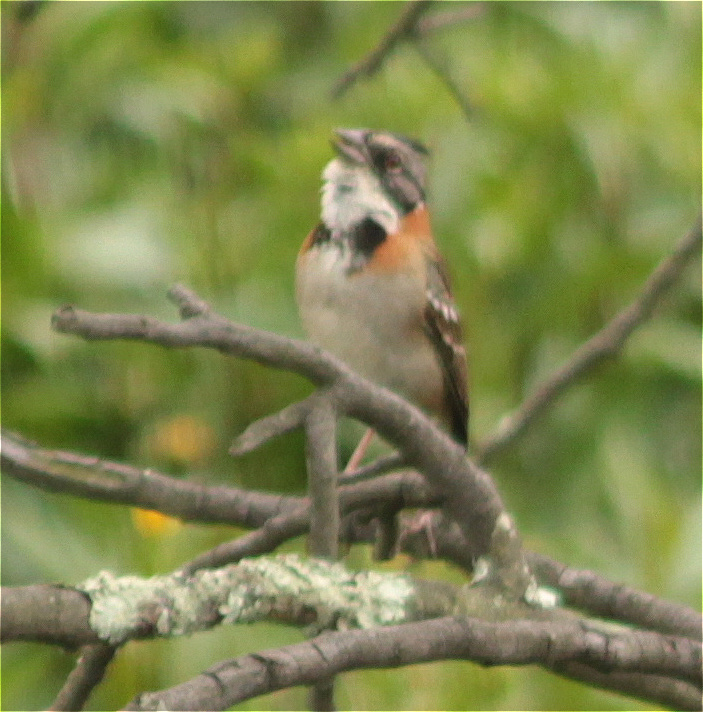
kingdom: Animalia
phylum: Chordata
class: Aves
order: Passeriformes
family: Passerellidae
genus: Zonotrichia
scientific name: Zonotrichia capensis
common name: Rufous-collared sparrow
